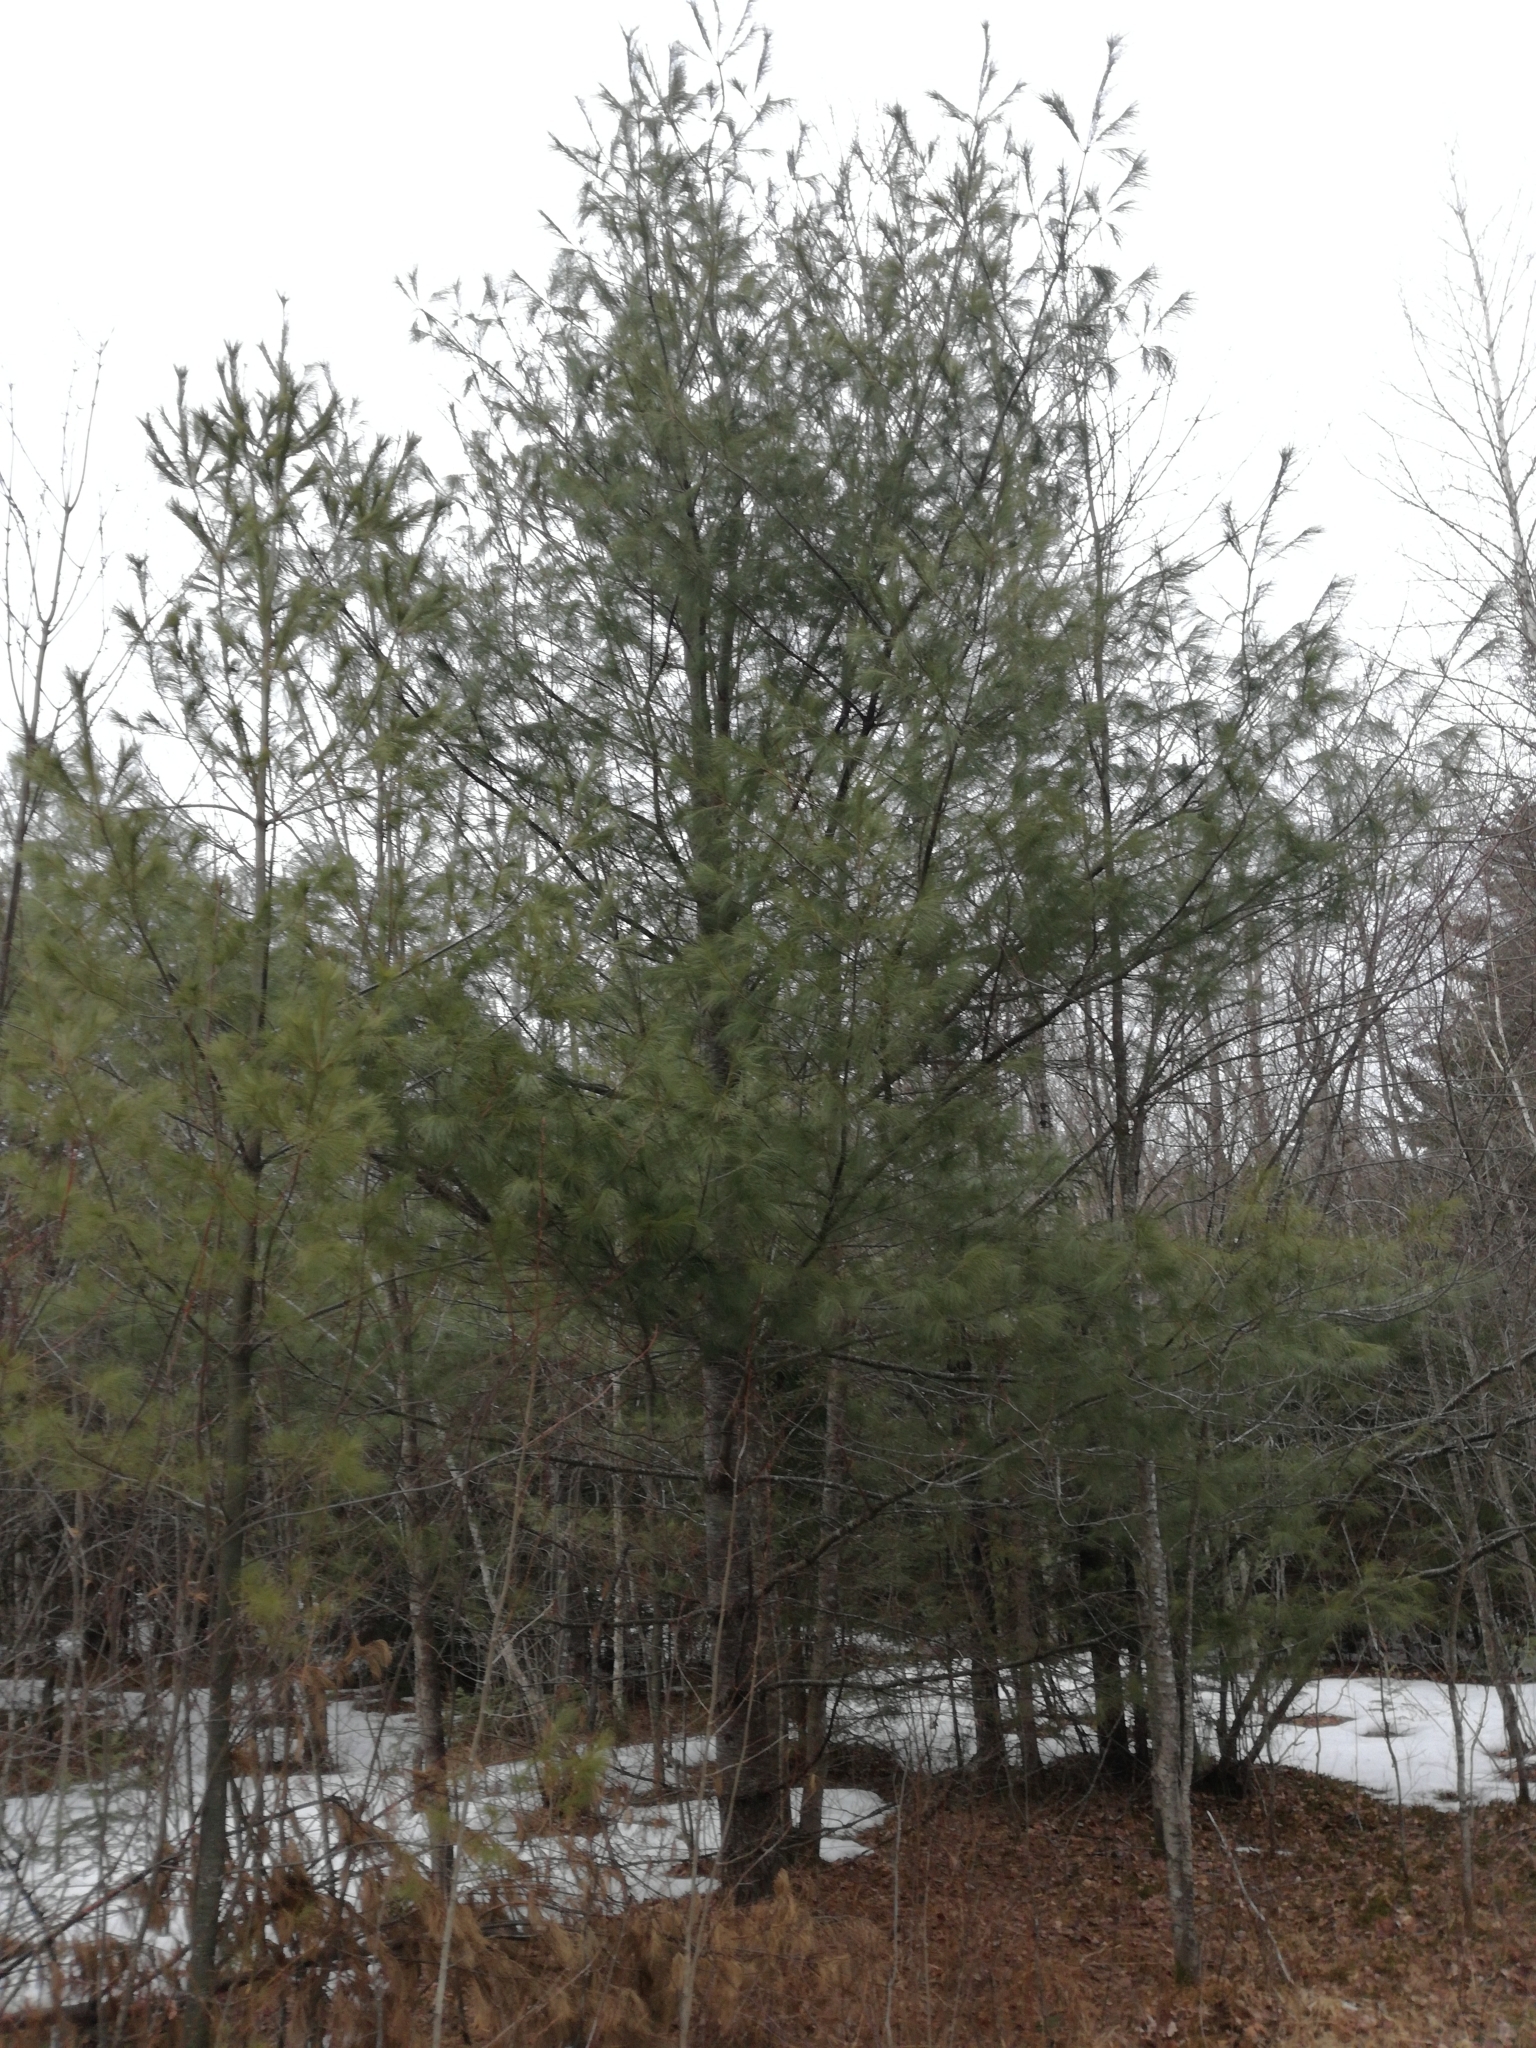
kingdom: Plantae
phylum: Tracheophyta
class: Pinopsida
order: Pinales
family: Pinaceae
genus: Pinus
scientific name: Pinus strobus
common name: Weymouth pine
